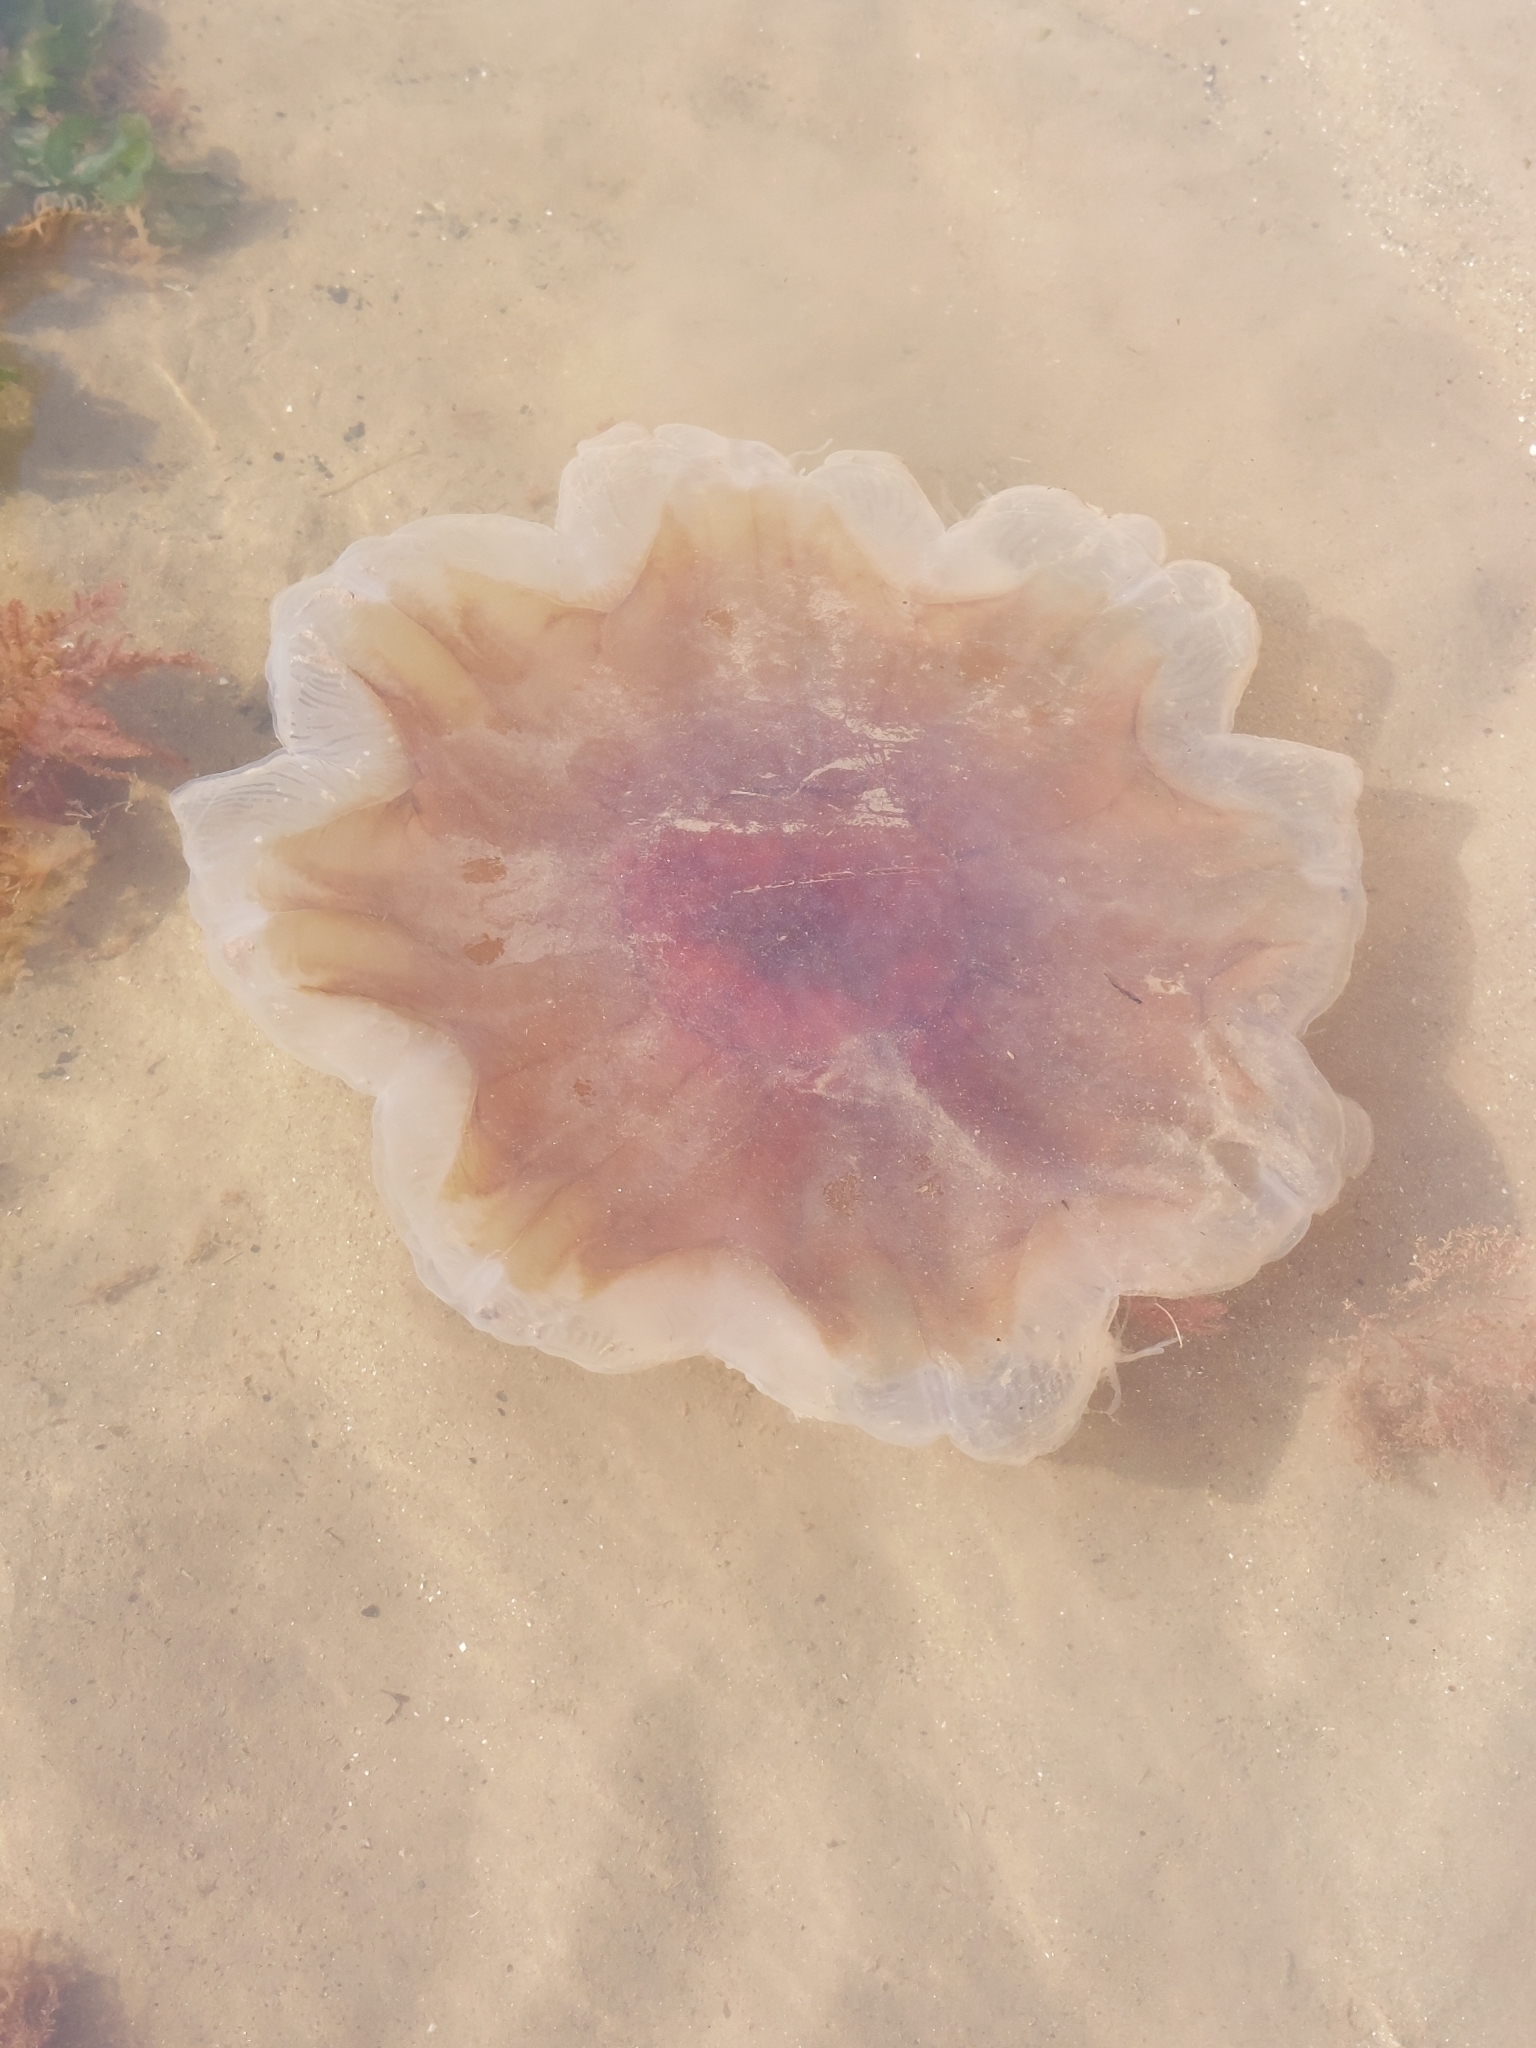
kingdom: Animalia
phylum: Cnidaria
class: Scyphozoa
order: Semaeostomeae
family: Cyaneidae
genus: Cyanea
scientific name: Cyanea capillata
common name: Lion's mane jellyfish
